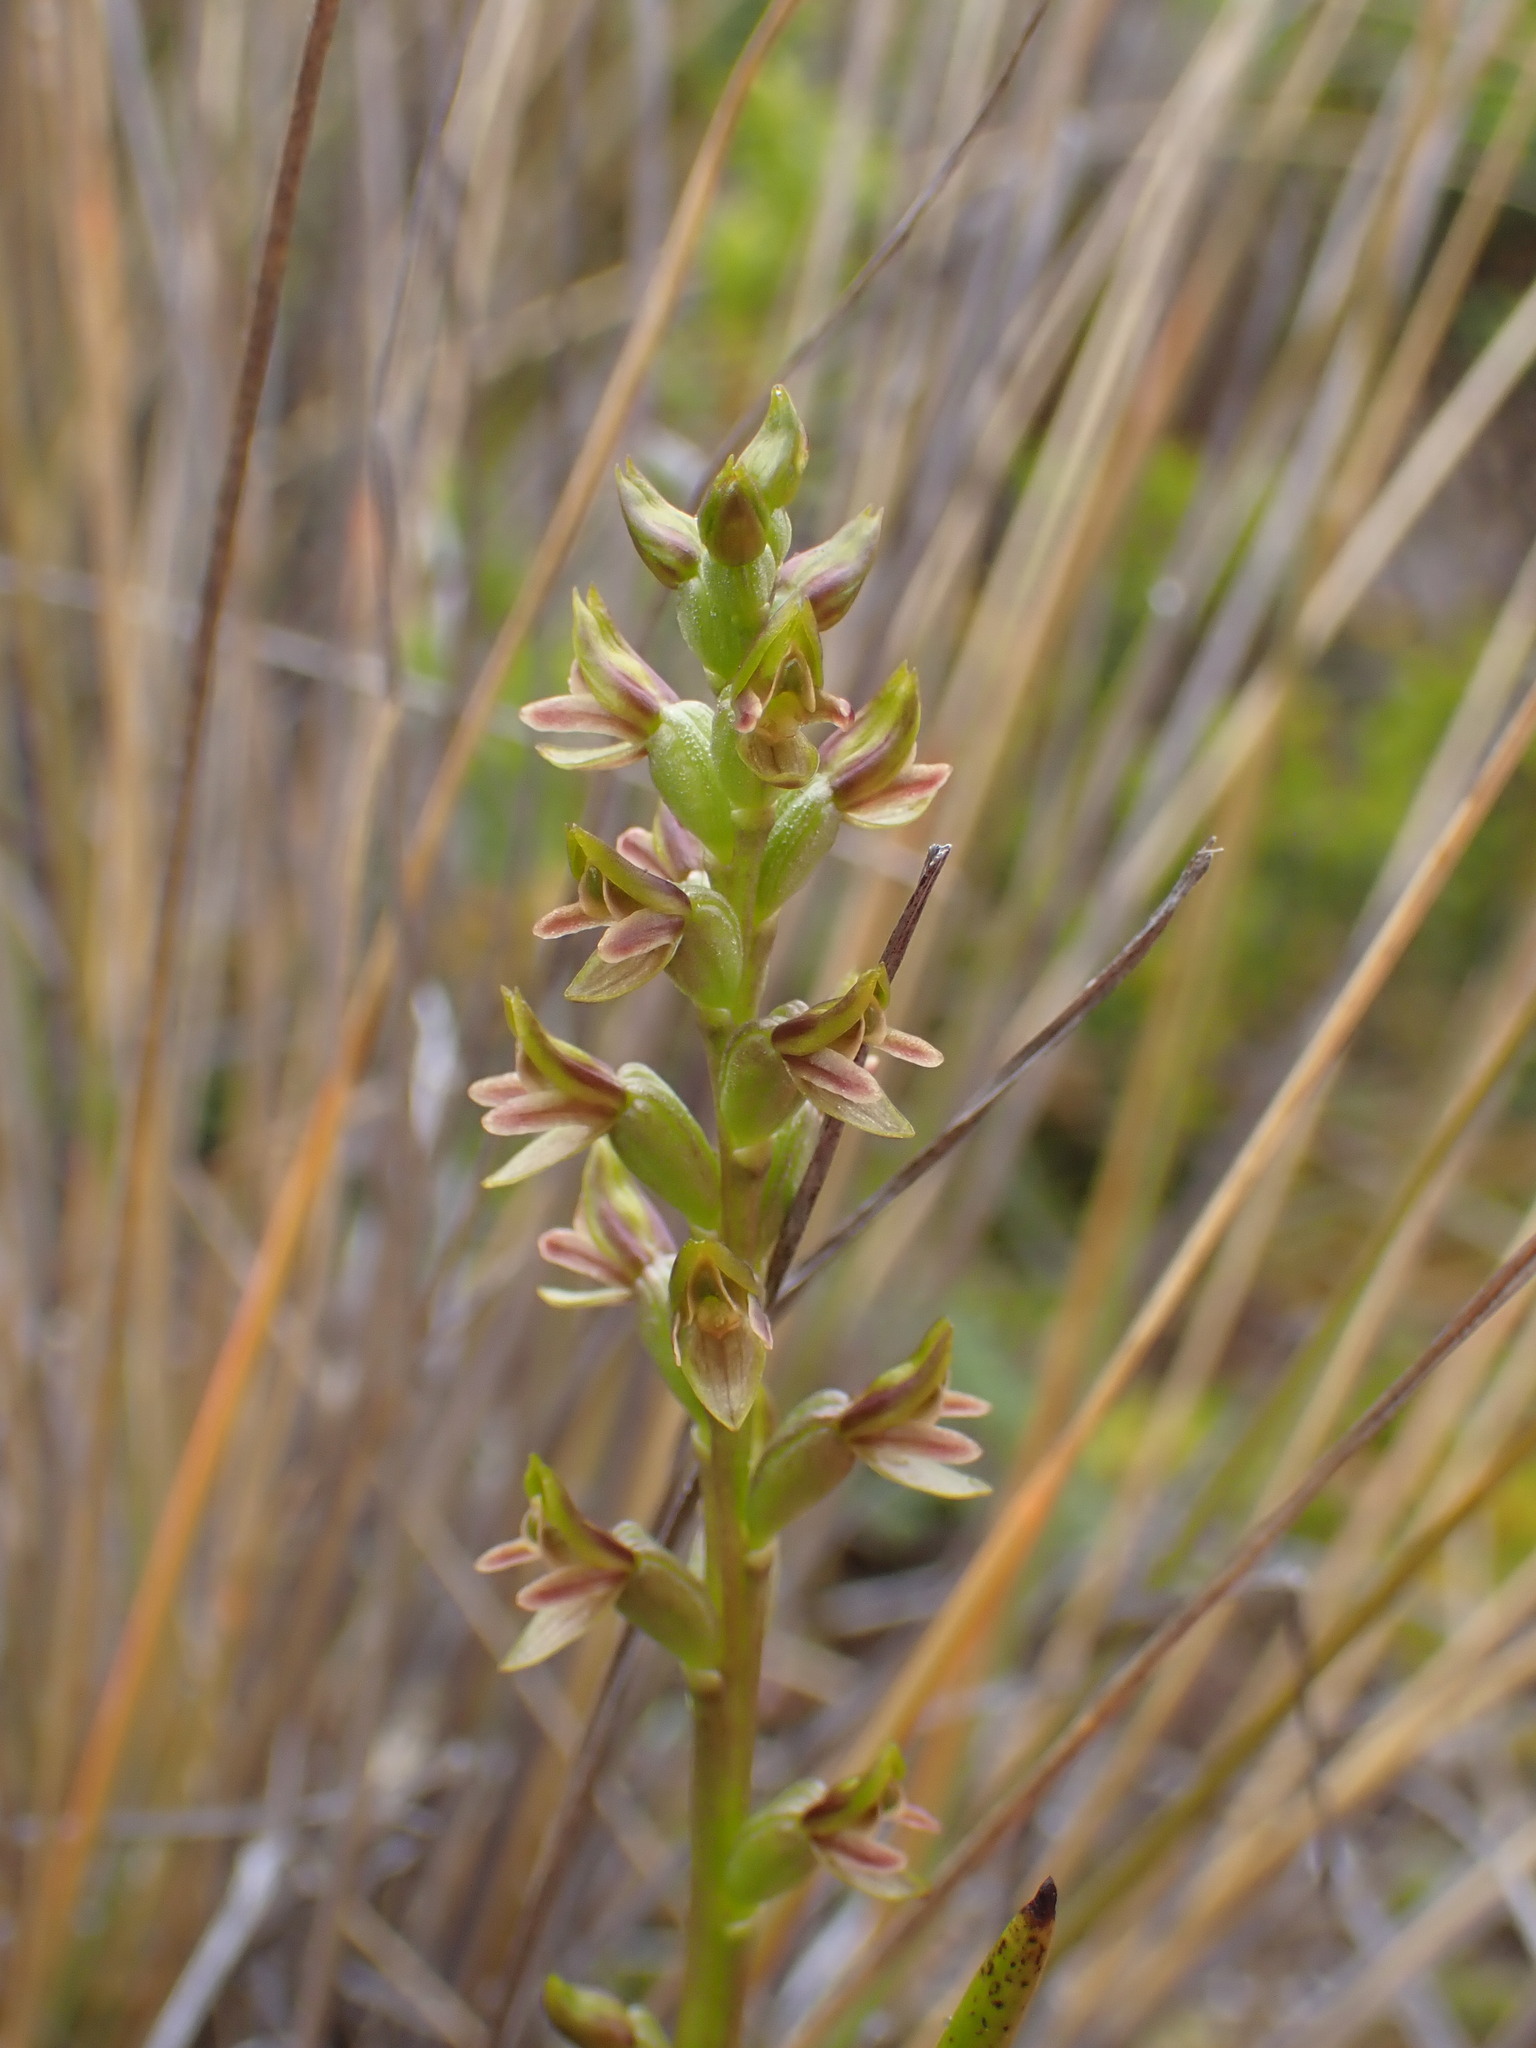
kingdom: Plantae
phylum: Tracheophyta
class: Liliopsida
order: Asparagales
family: Orchidaceae
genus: Prasophyllum
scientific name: Prasophyllum colensoi
